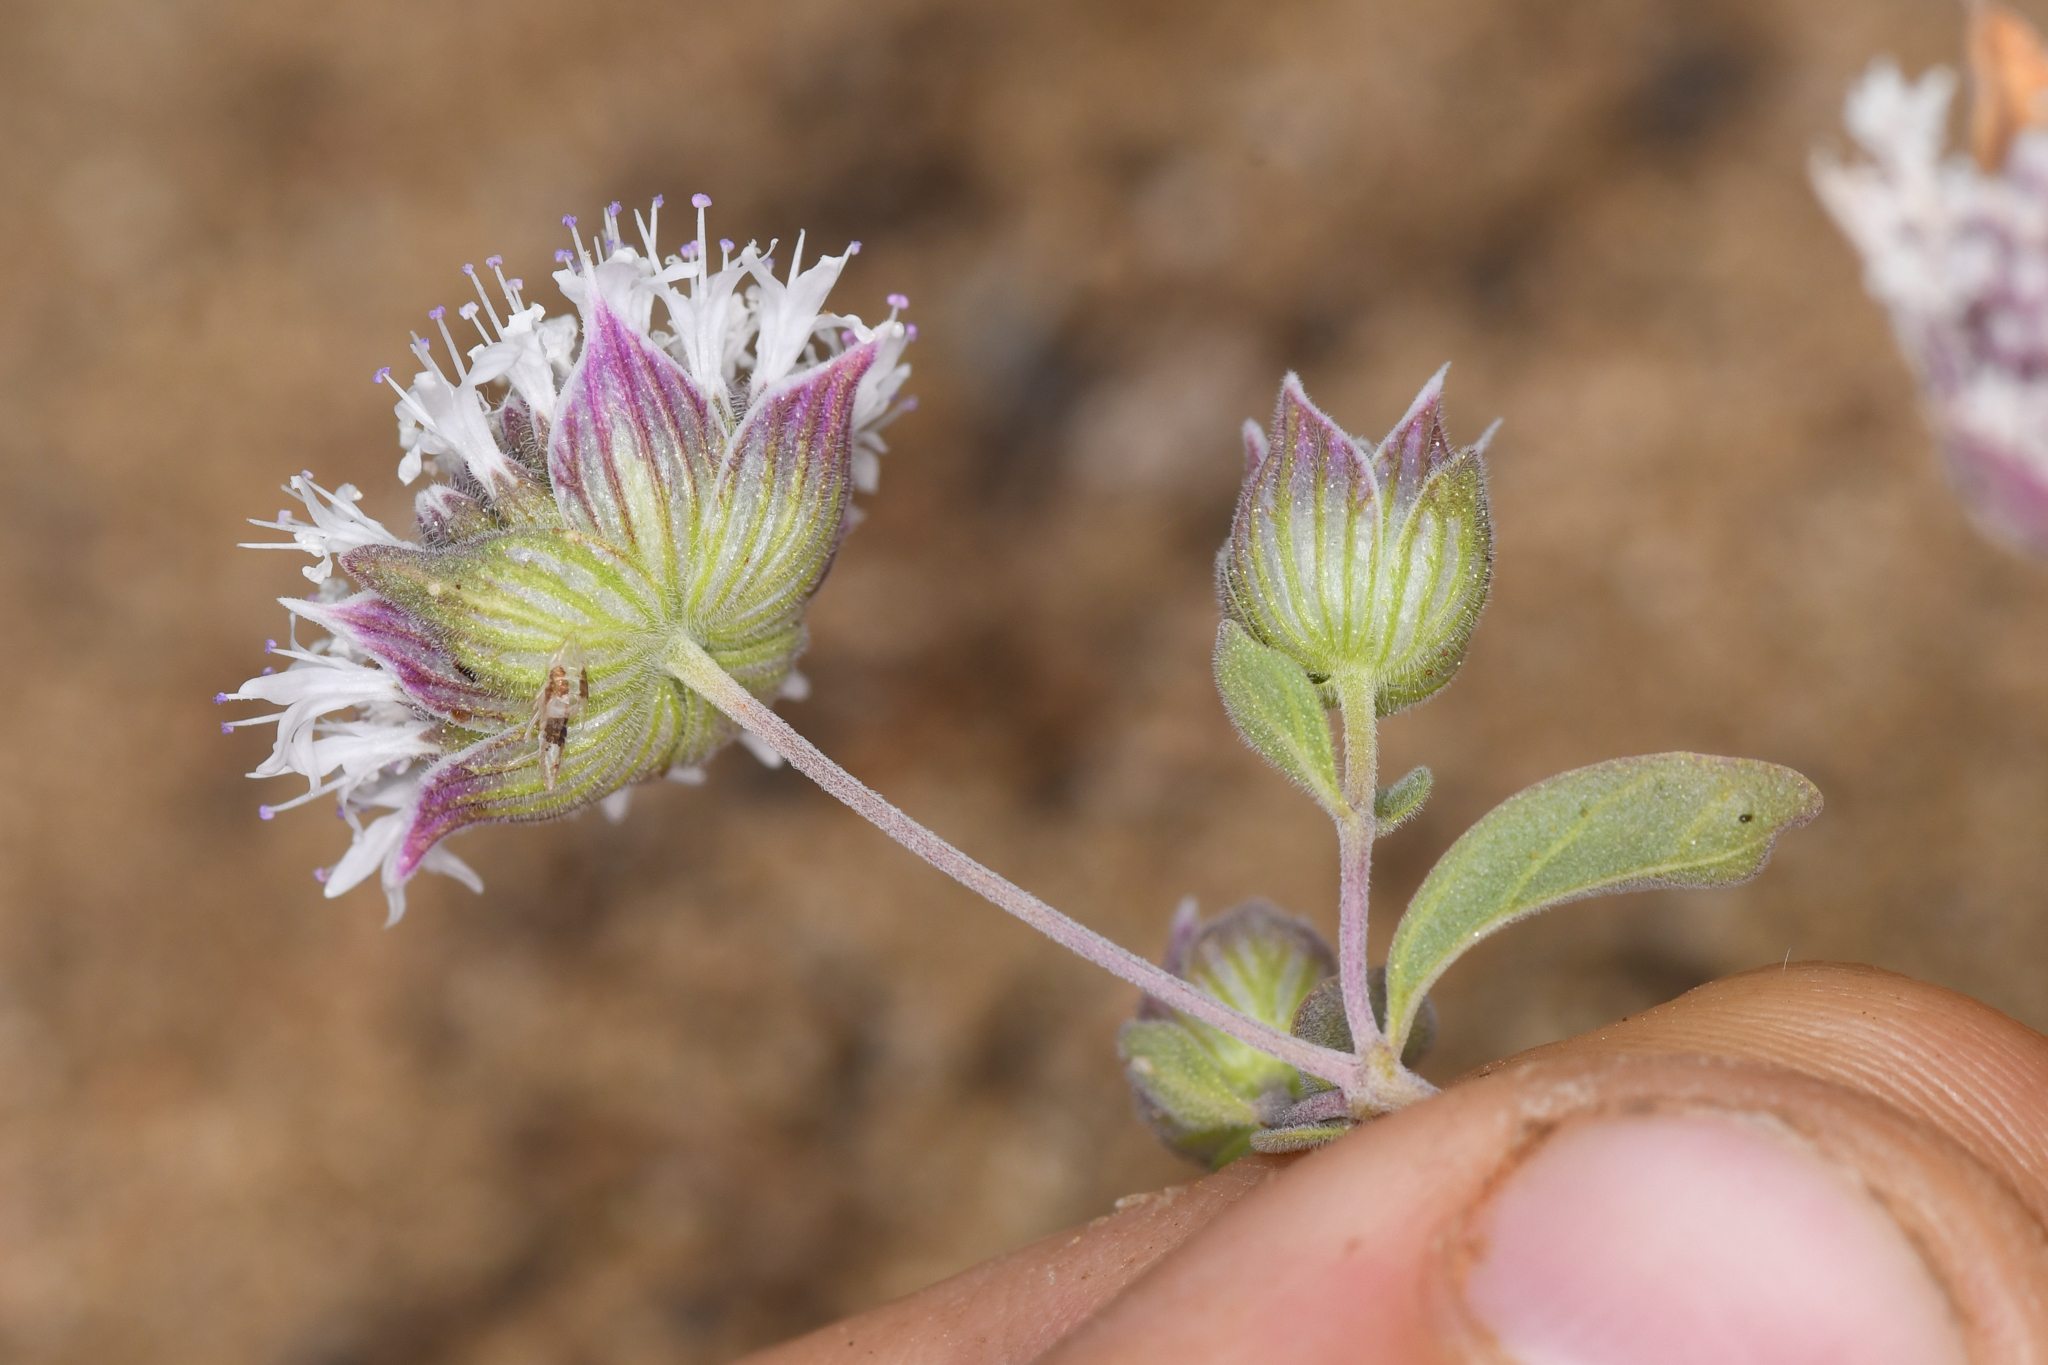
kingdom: Plantae
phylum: Tracheophyta
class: Magnoliopsida
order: Lamiales
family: Lamiaceae
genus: Monardella
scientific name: Monardella exilis
